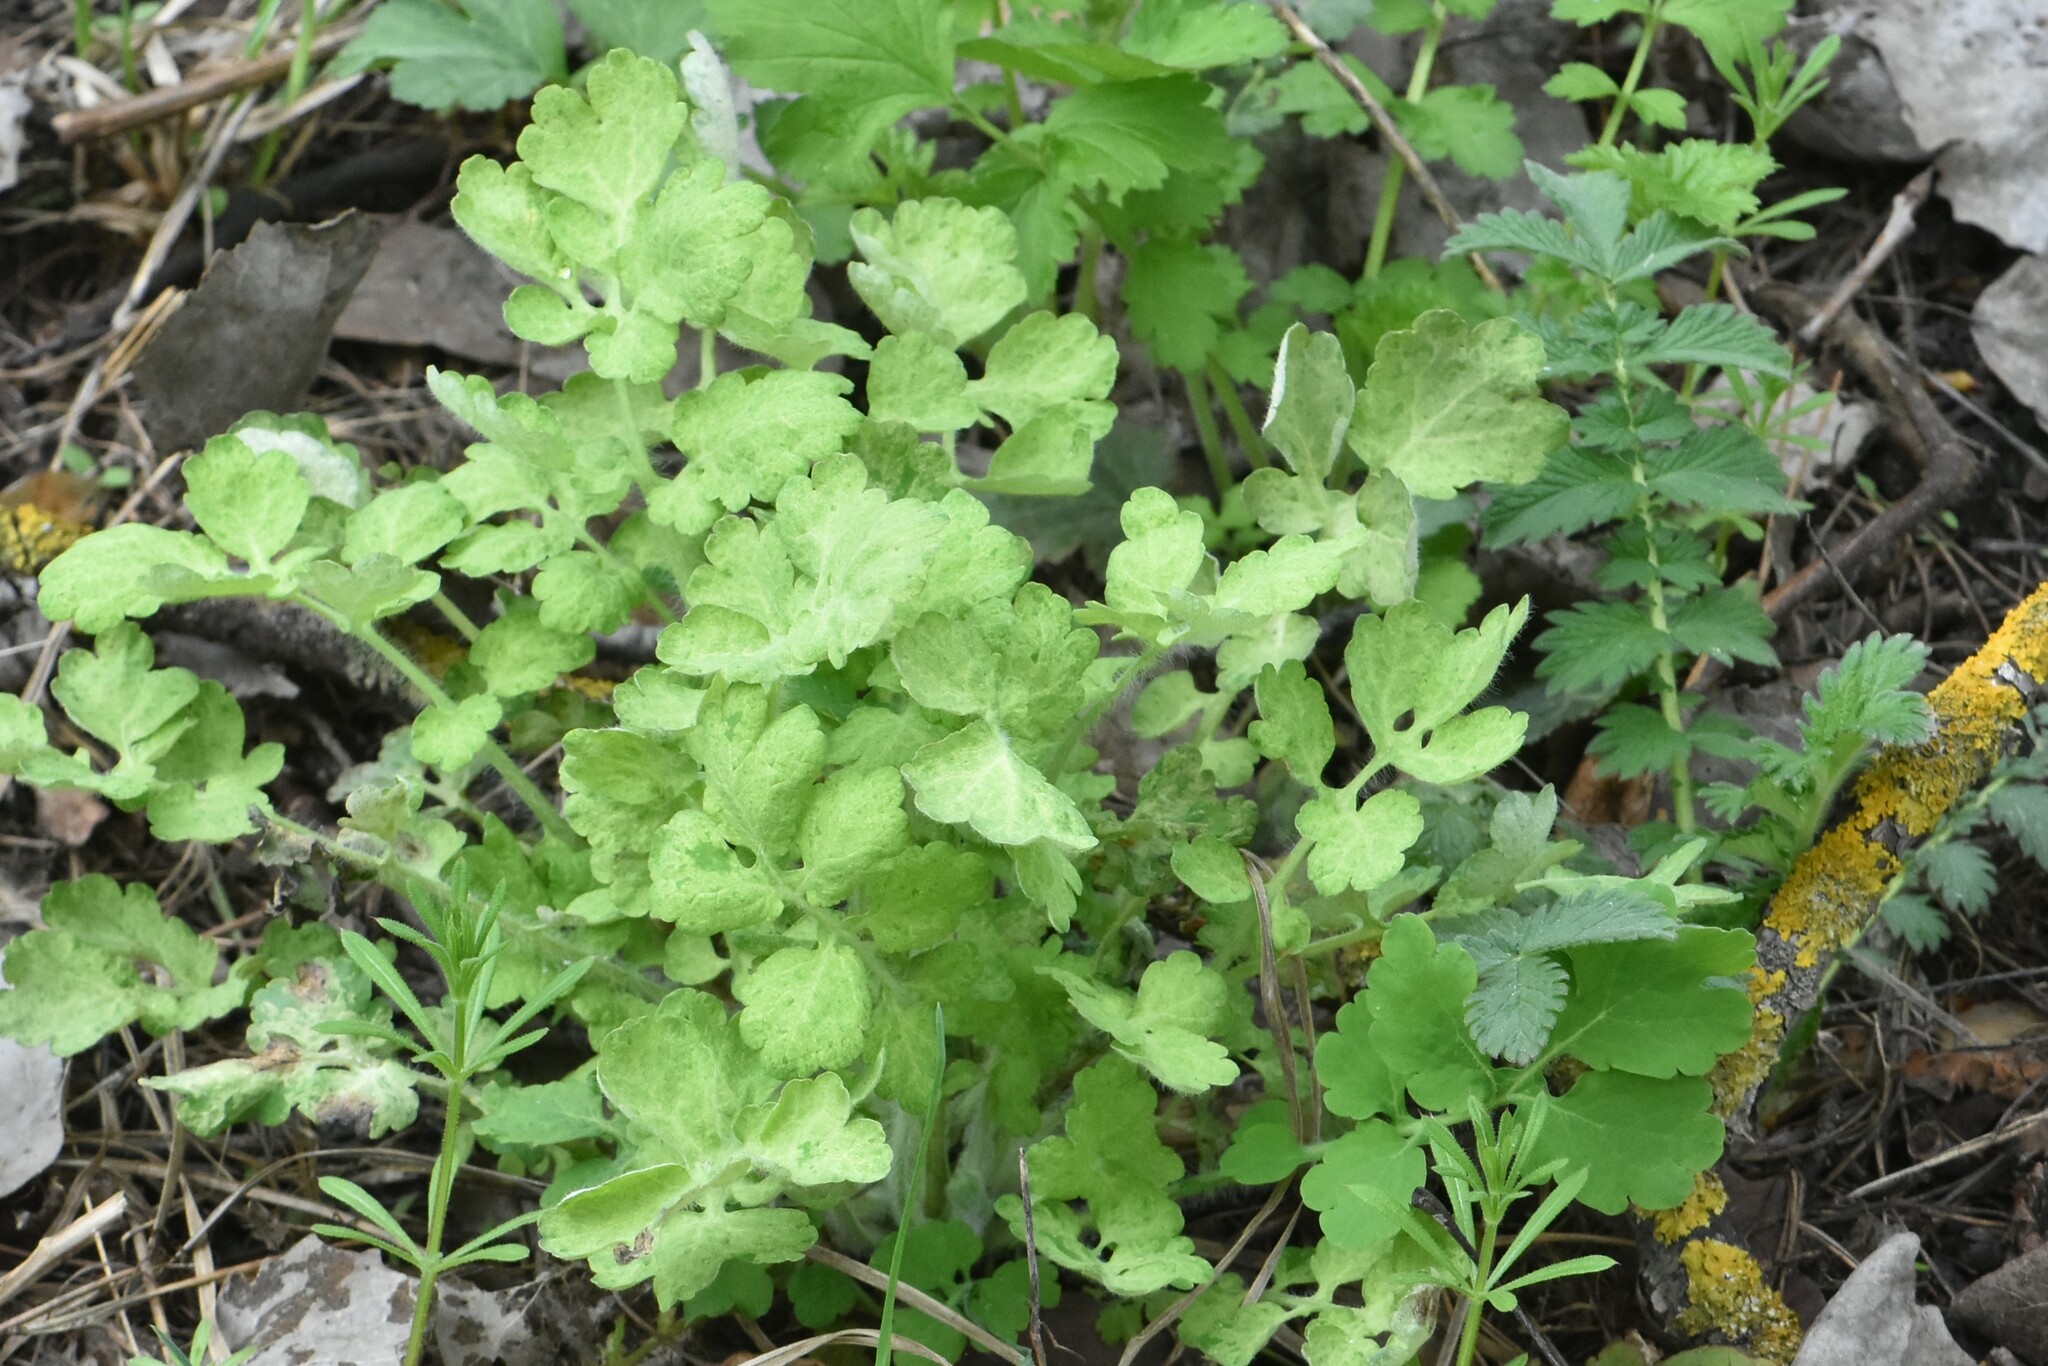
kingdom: Plantae
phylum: Tracheophyta
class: Magnoliopsida
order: Ranunculales
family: Papaveraceae
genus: Chelidonium
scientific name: Chelidonium majus
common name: Greater celandine
